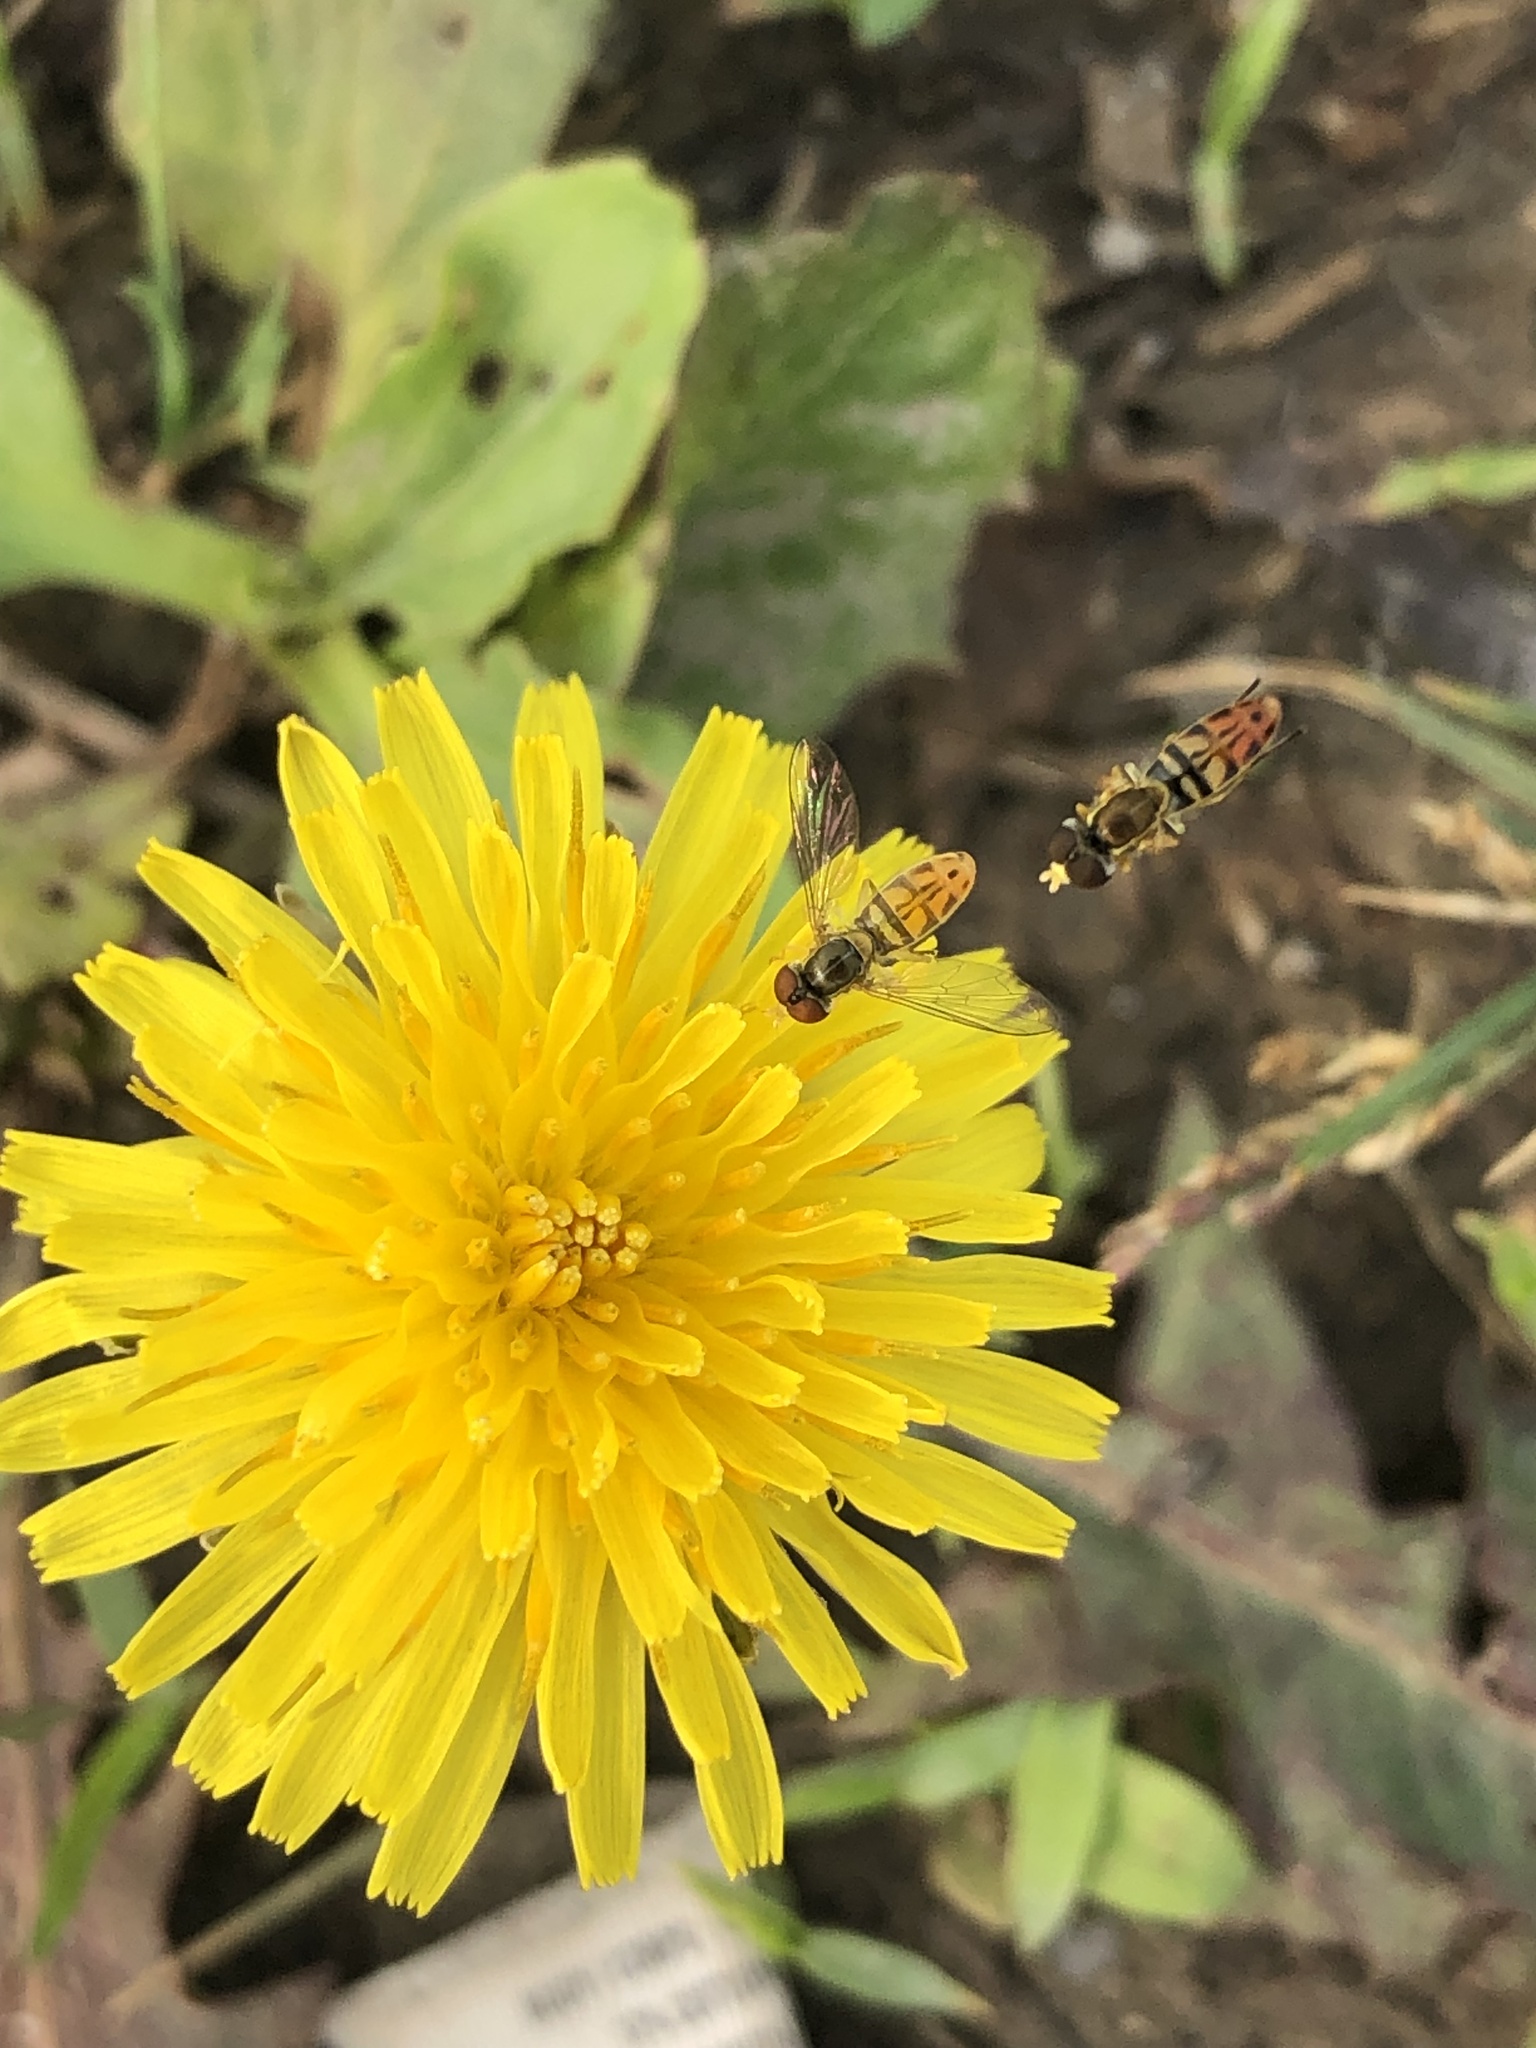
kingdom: Animalia
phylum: Arthropoda
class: Insecta
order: Diptera
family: Syrphidae
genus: Toxomerus
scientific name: Toxomerus marginatus
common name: Syrphid fly
